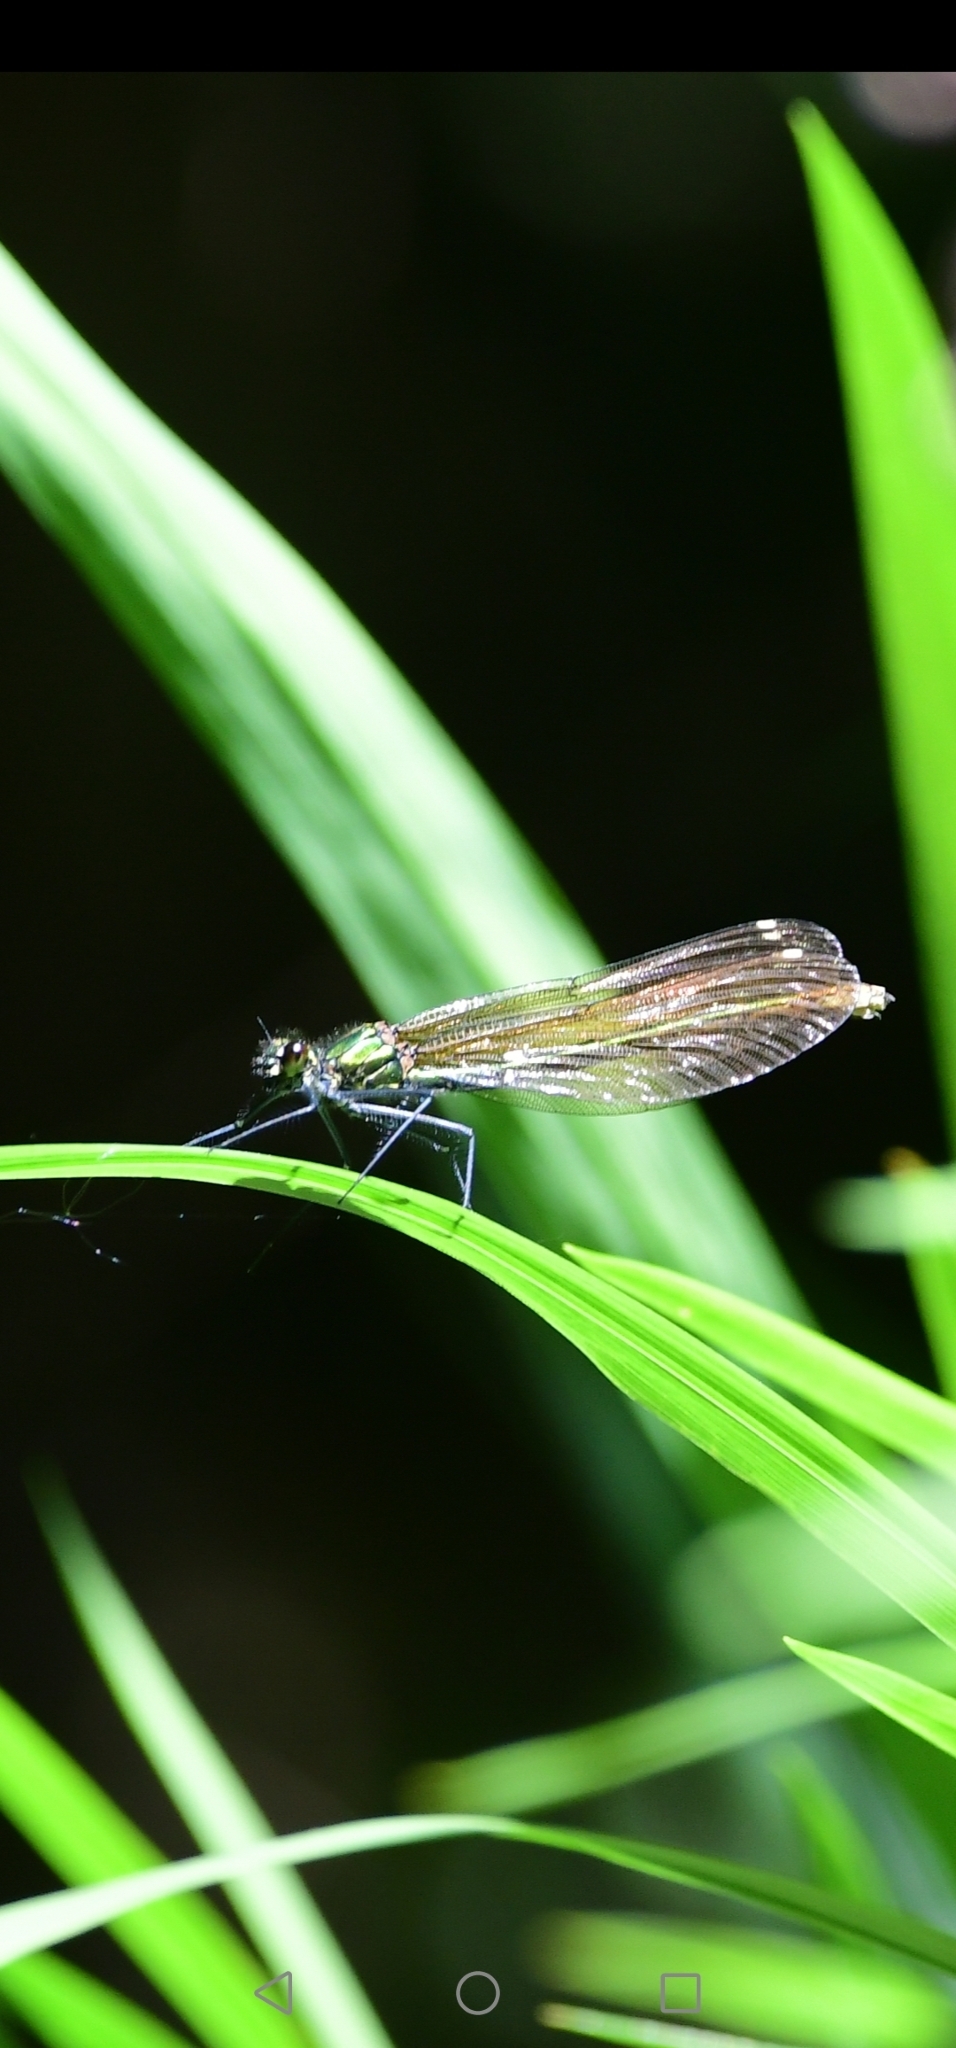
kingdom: Animalia
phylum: Arthropoda
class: Insecta
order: Odonata
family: Calopterygidae
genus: Calopteryx
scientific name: Calopteryx virgo
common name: Beautiful demoiselle
